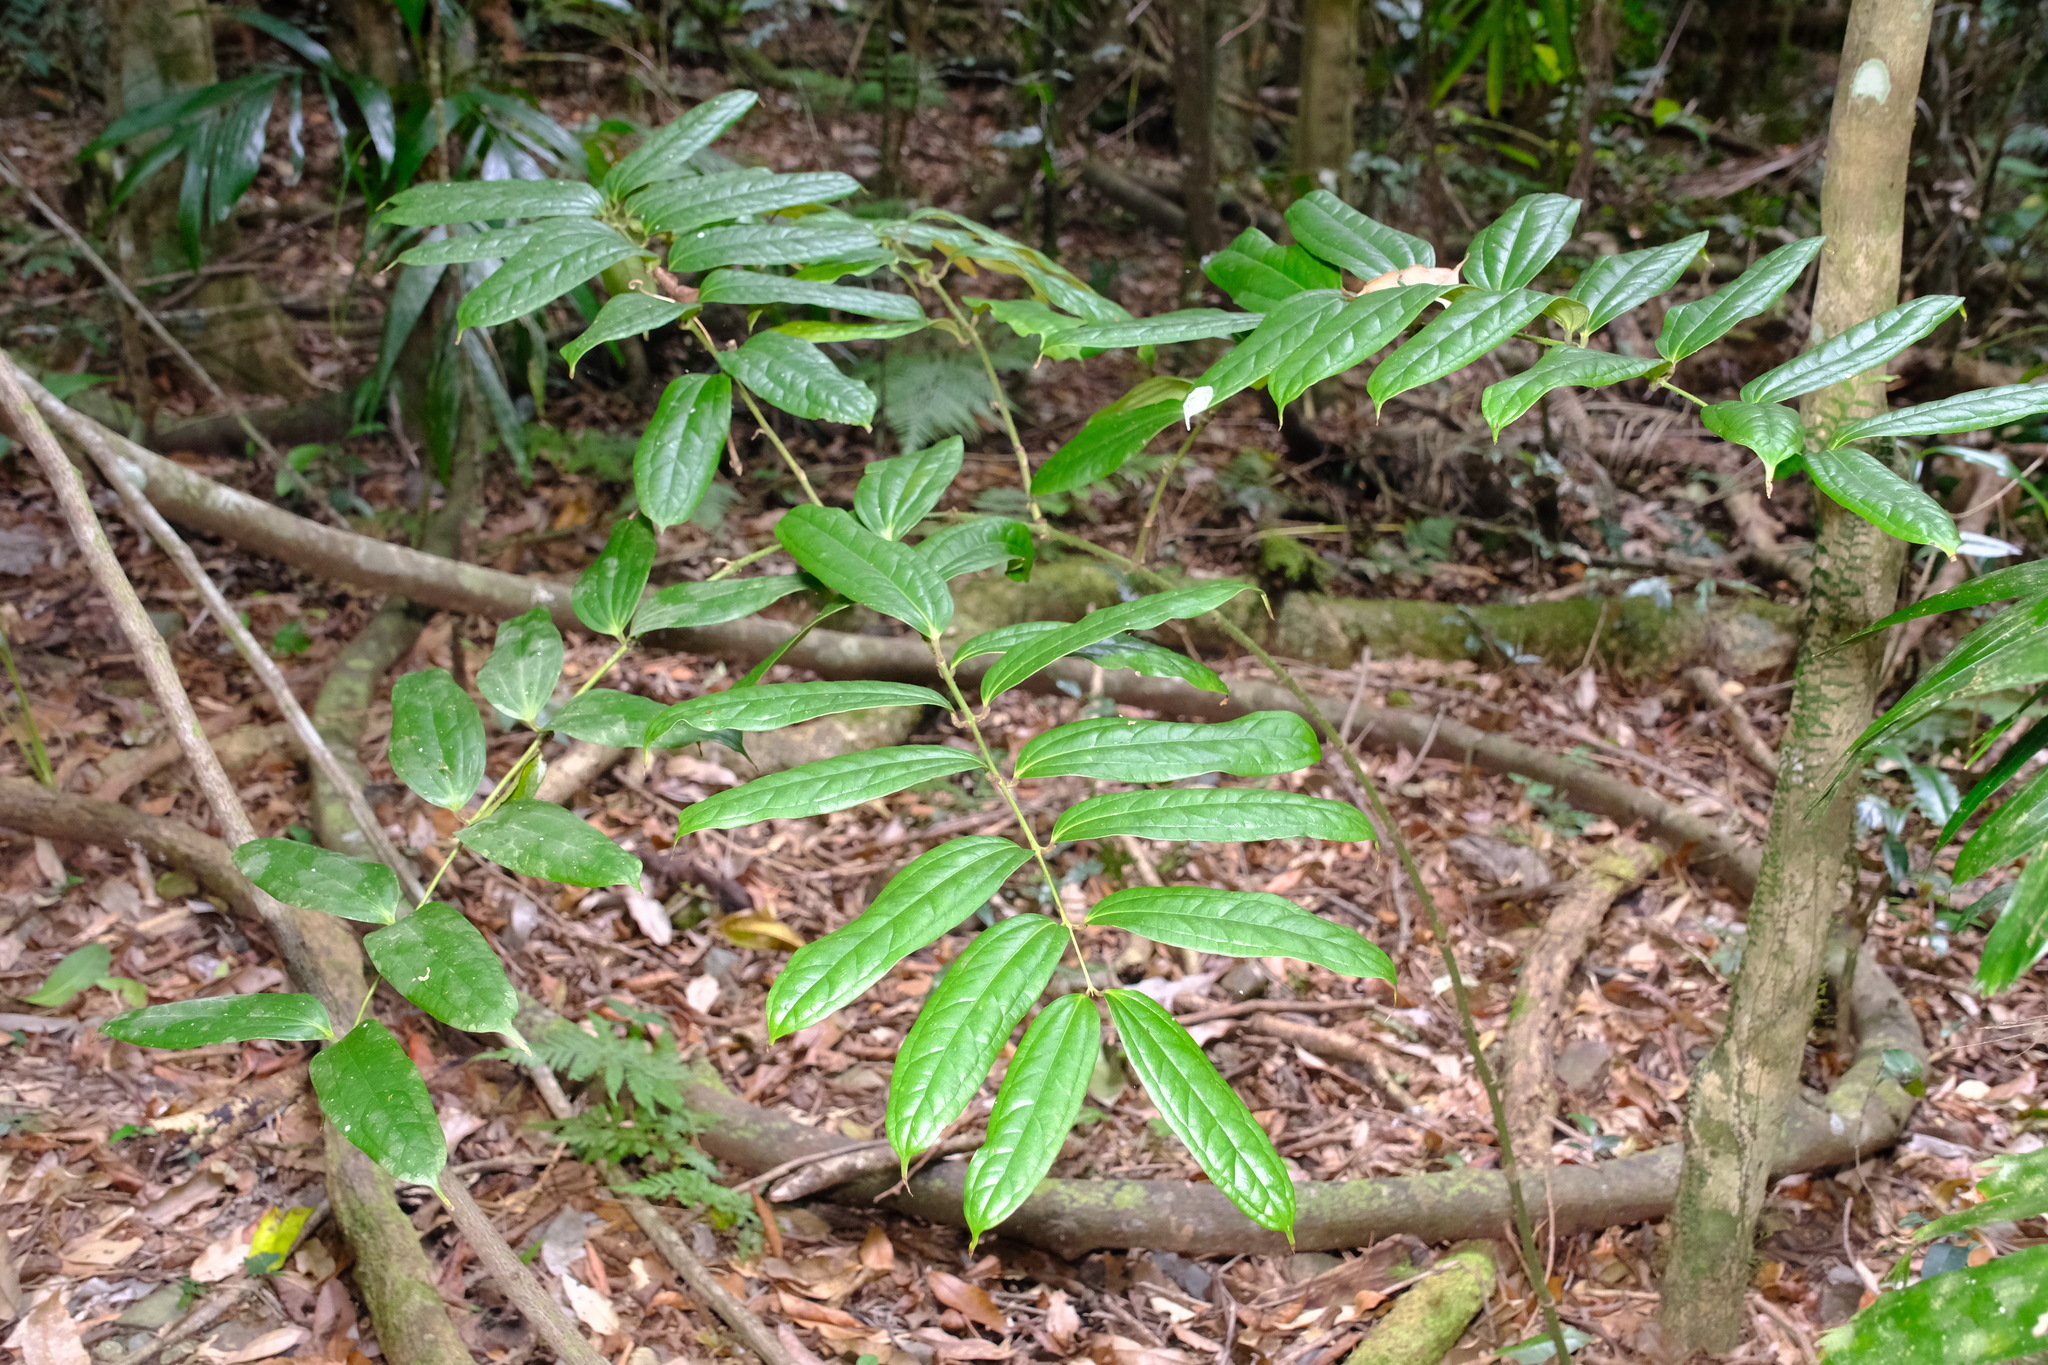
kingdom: Plantae
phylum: Tracheophyta
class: Liliopsida
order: Liliales
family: Ripogonaceae
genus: Ripogonum
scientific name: Ripogonum discolor
